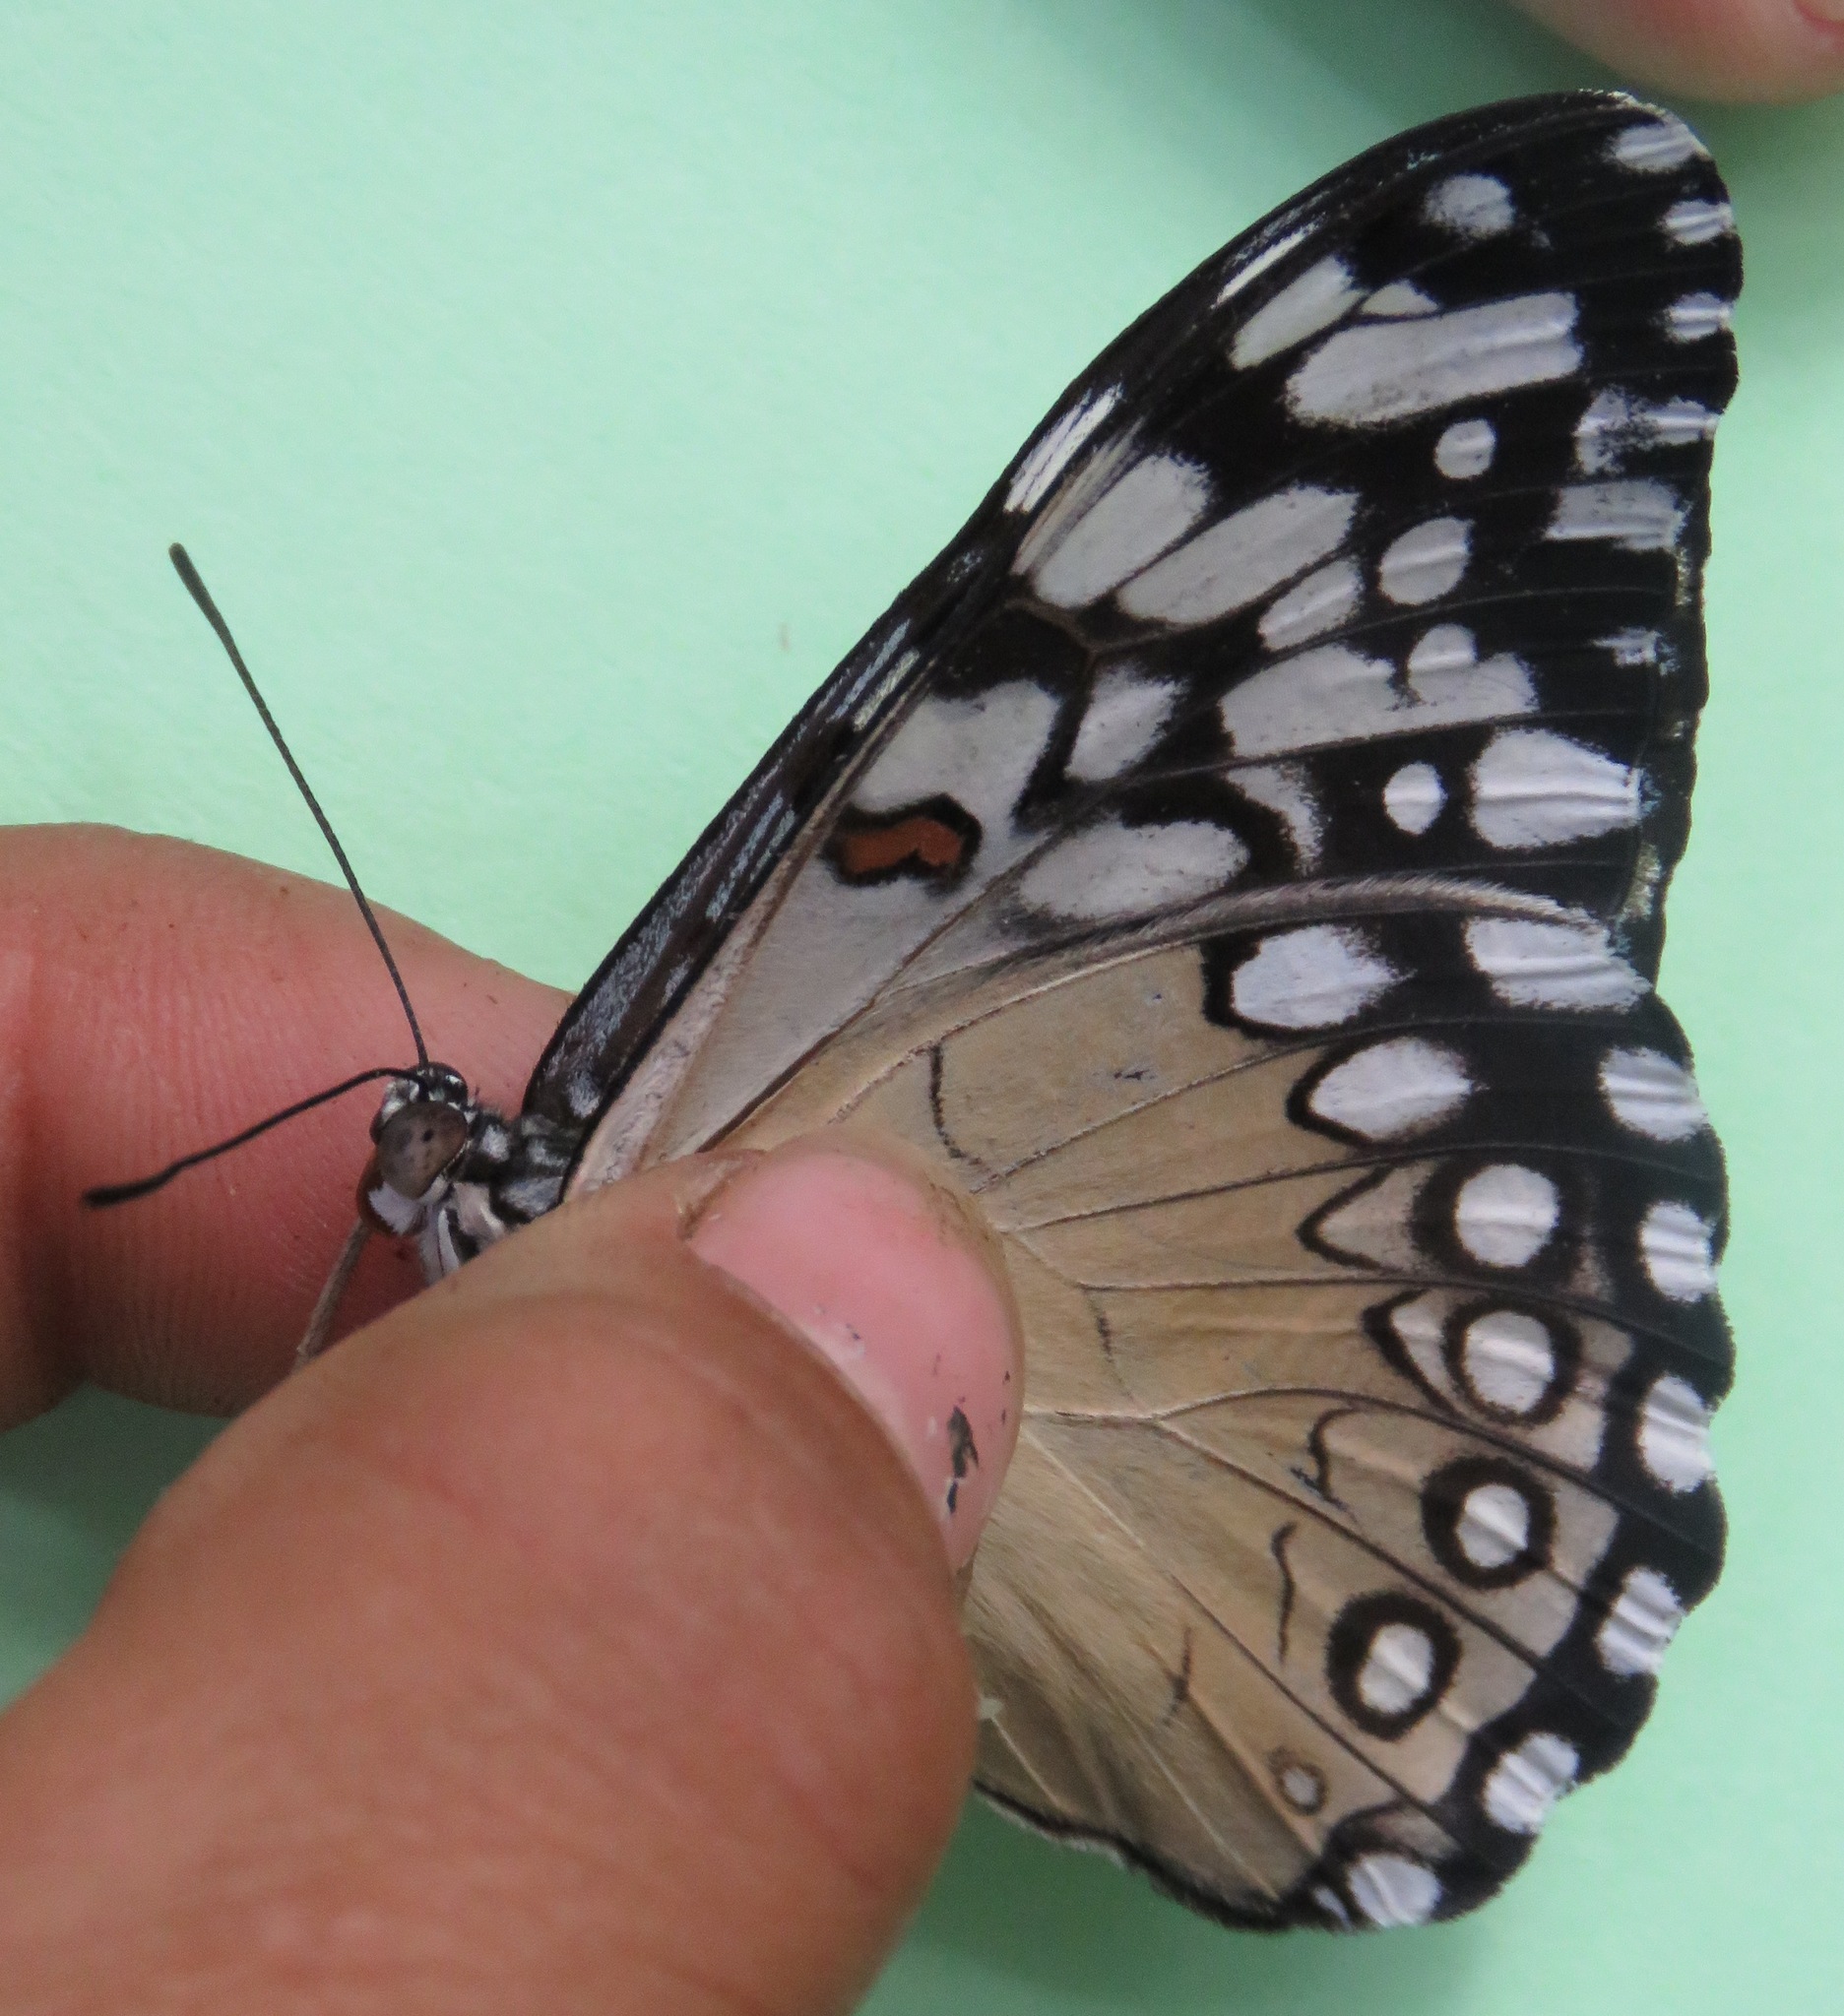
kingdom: Animalia
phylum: Arthropoda
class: Insecta
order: Lepidoptera
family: Nymphalidae
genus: Hamadryas
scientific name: Hamadryas guatemalena
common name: Guatemalan cracker
